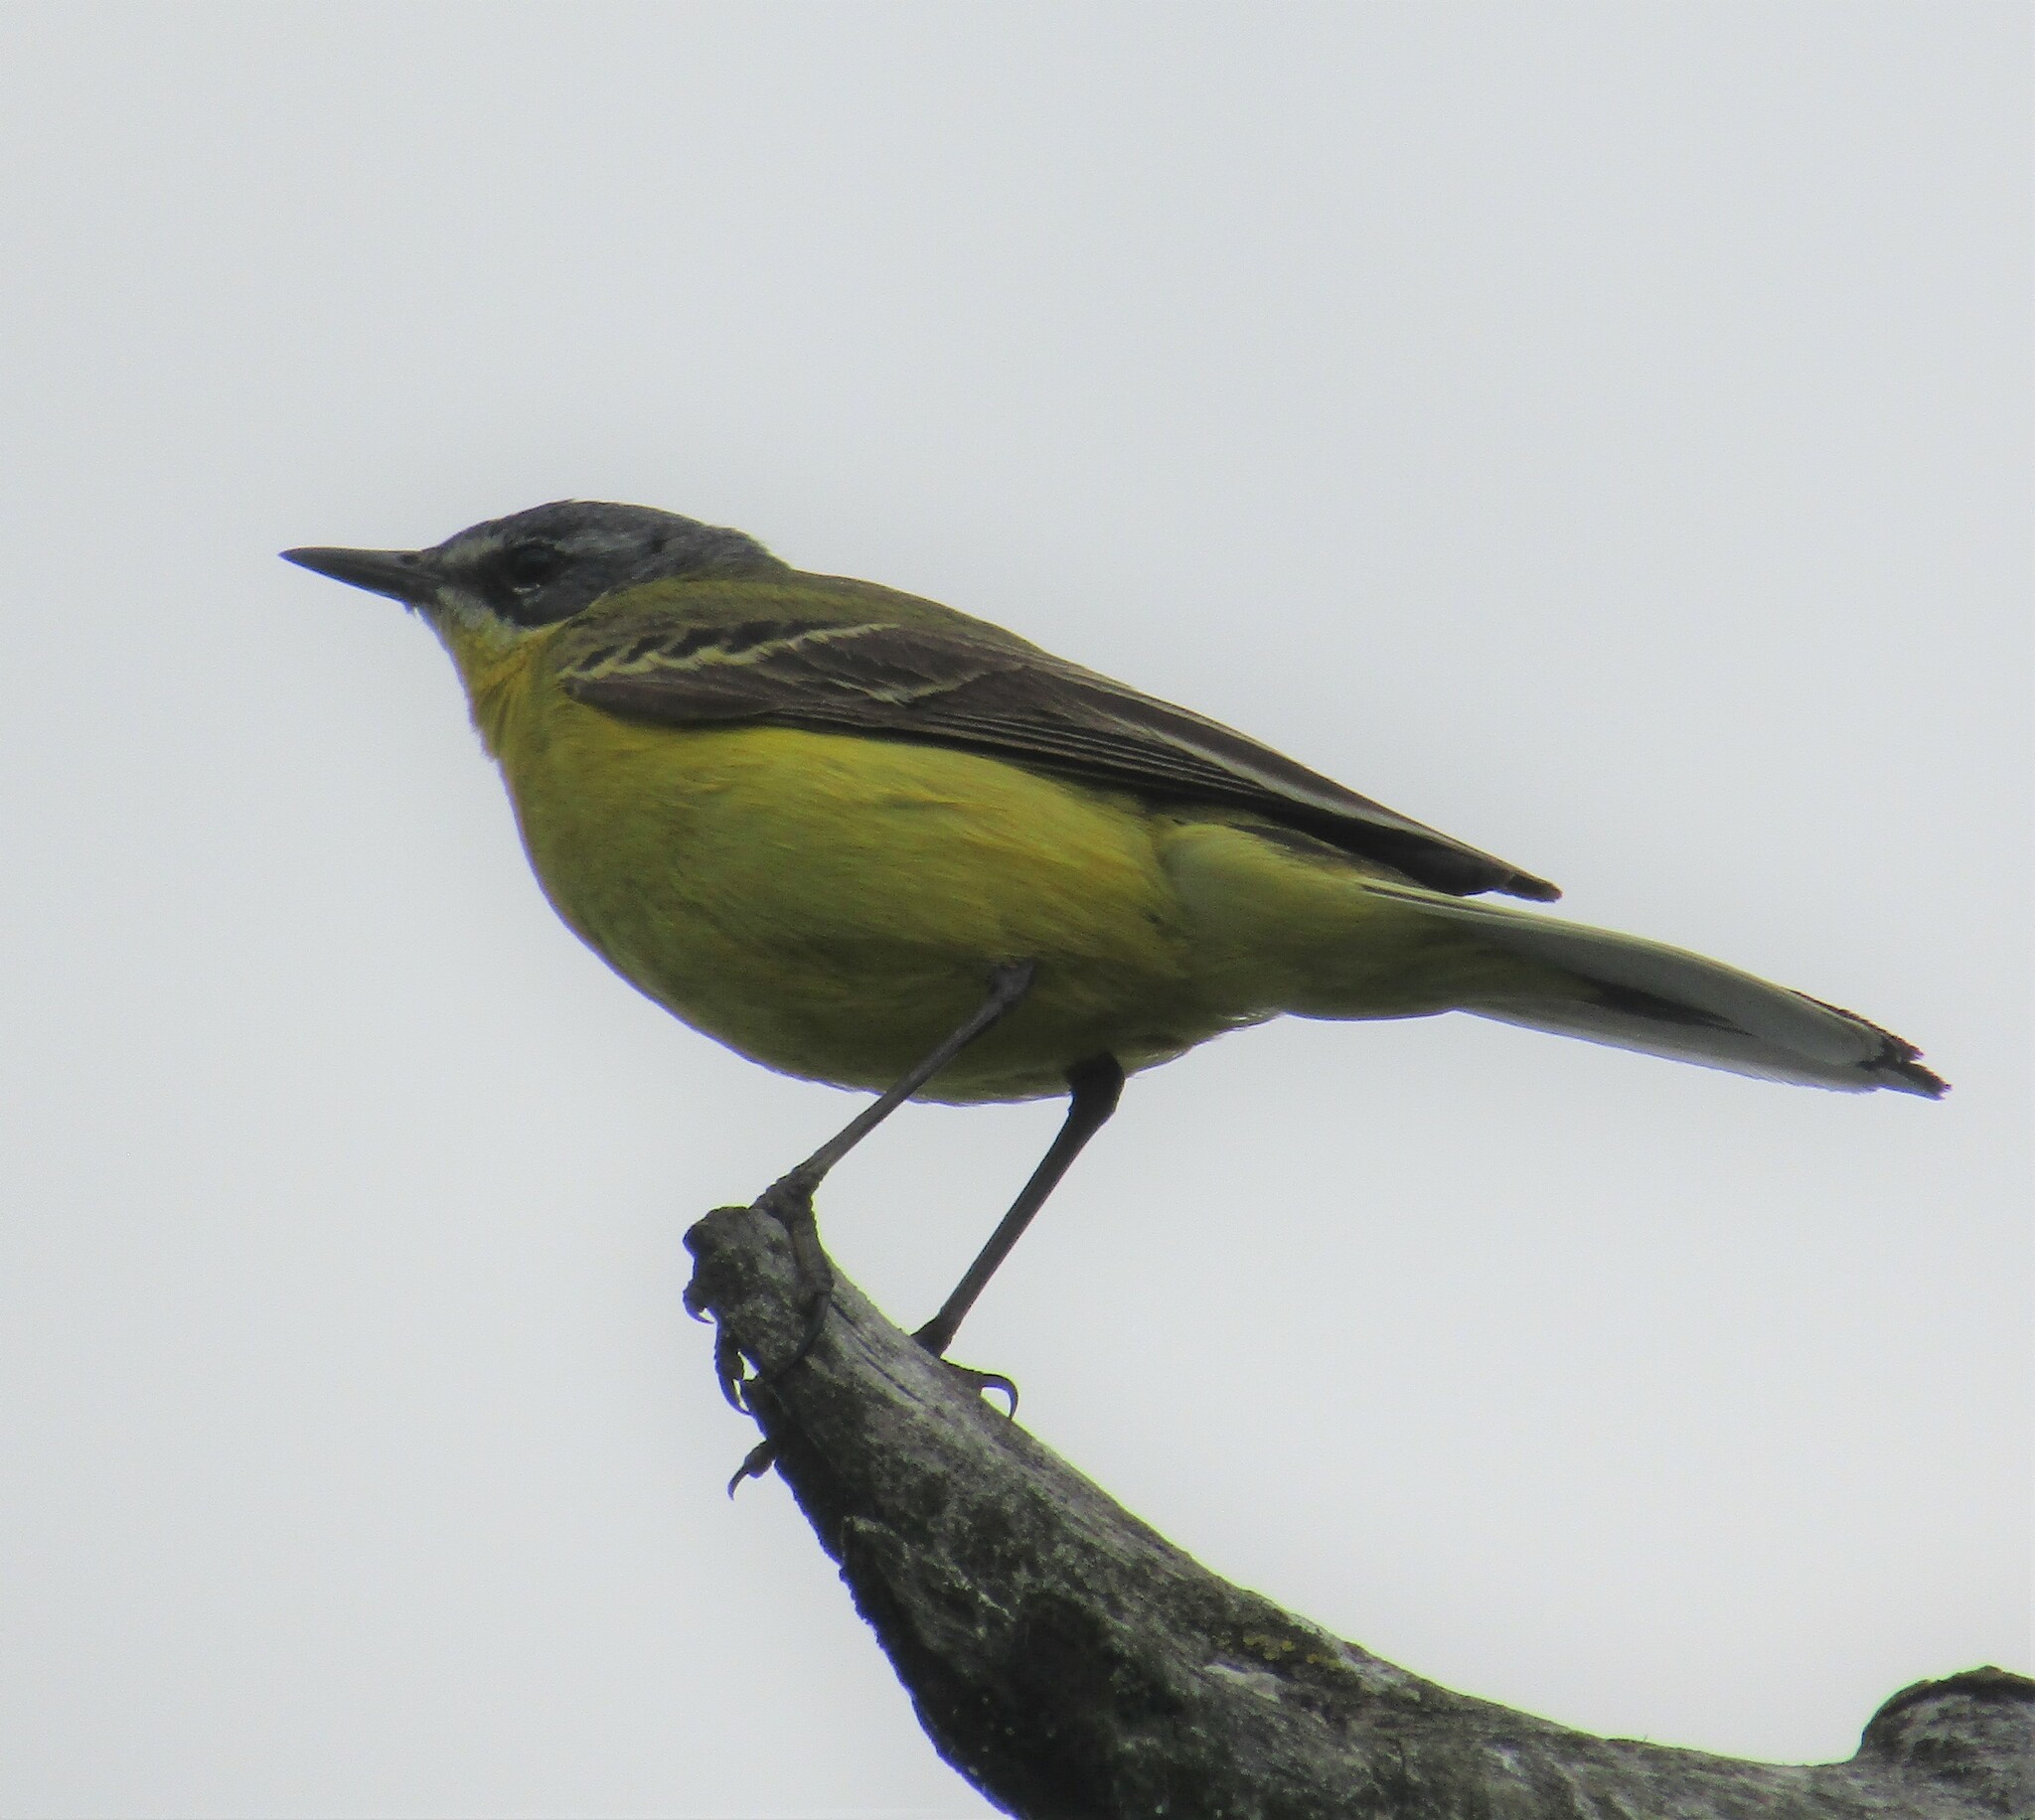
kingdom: Animalia
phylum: Chordata
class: Aves
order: Passeriformes
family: Motacillidae
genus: Motacilla
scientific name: Motacilla flava
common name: Western yellow wagtail
